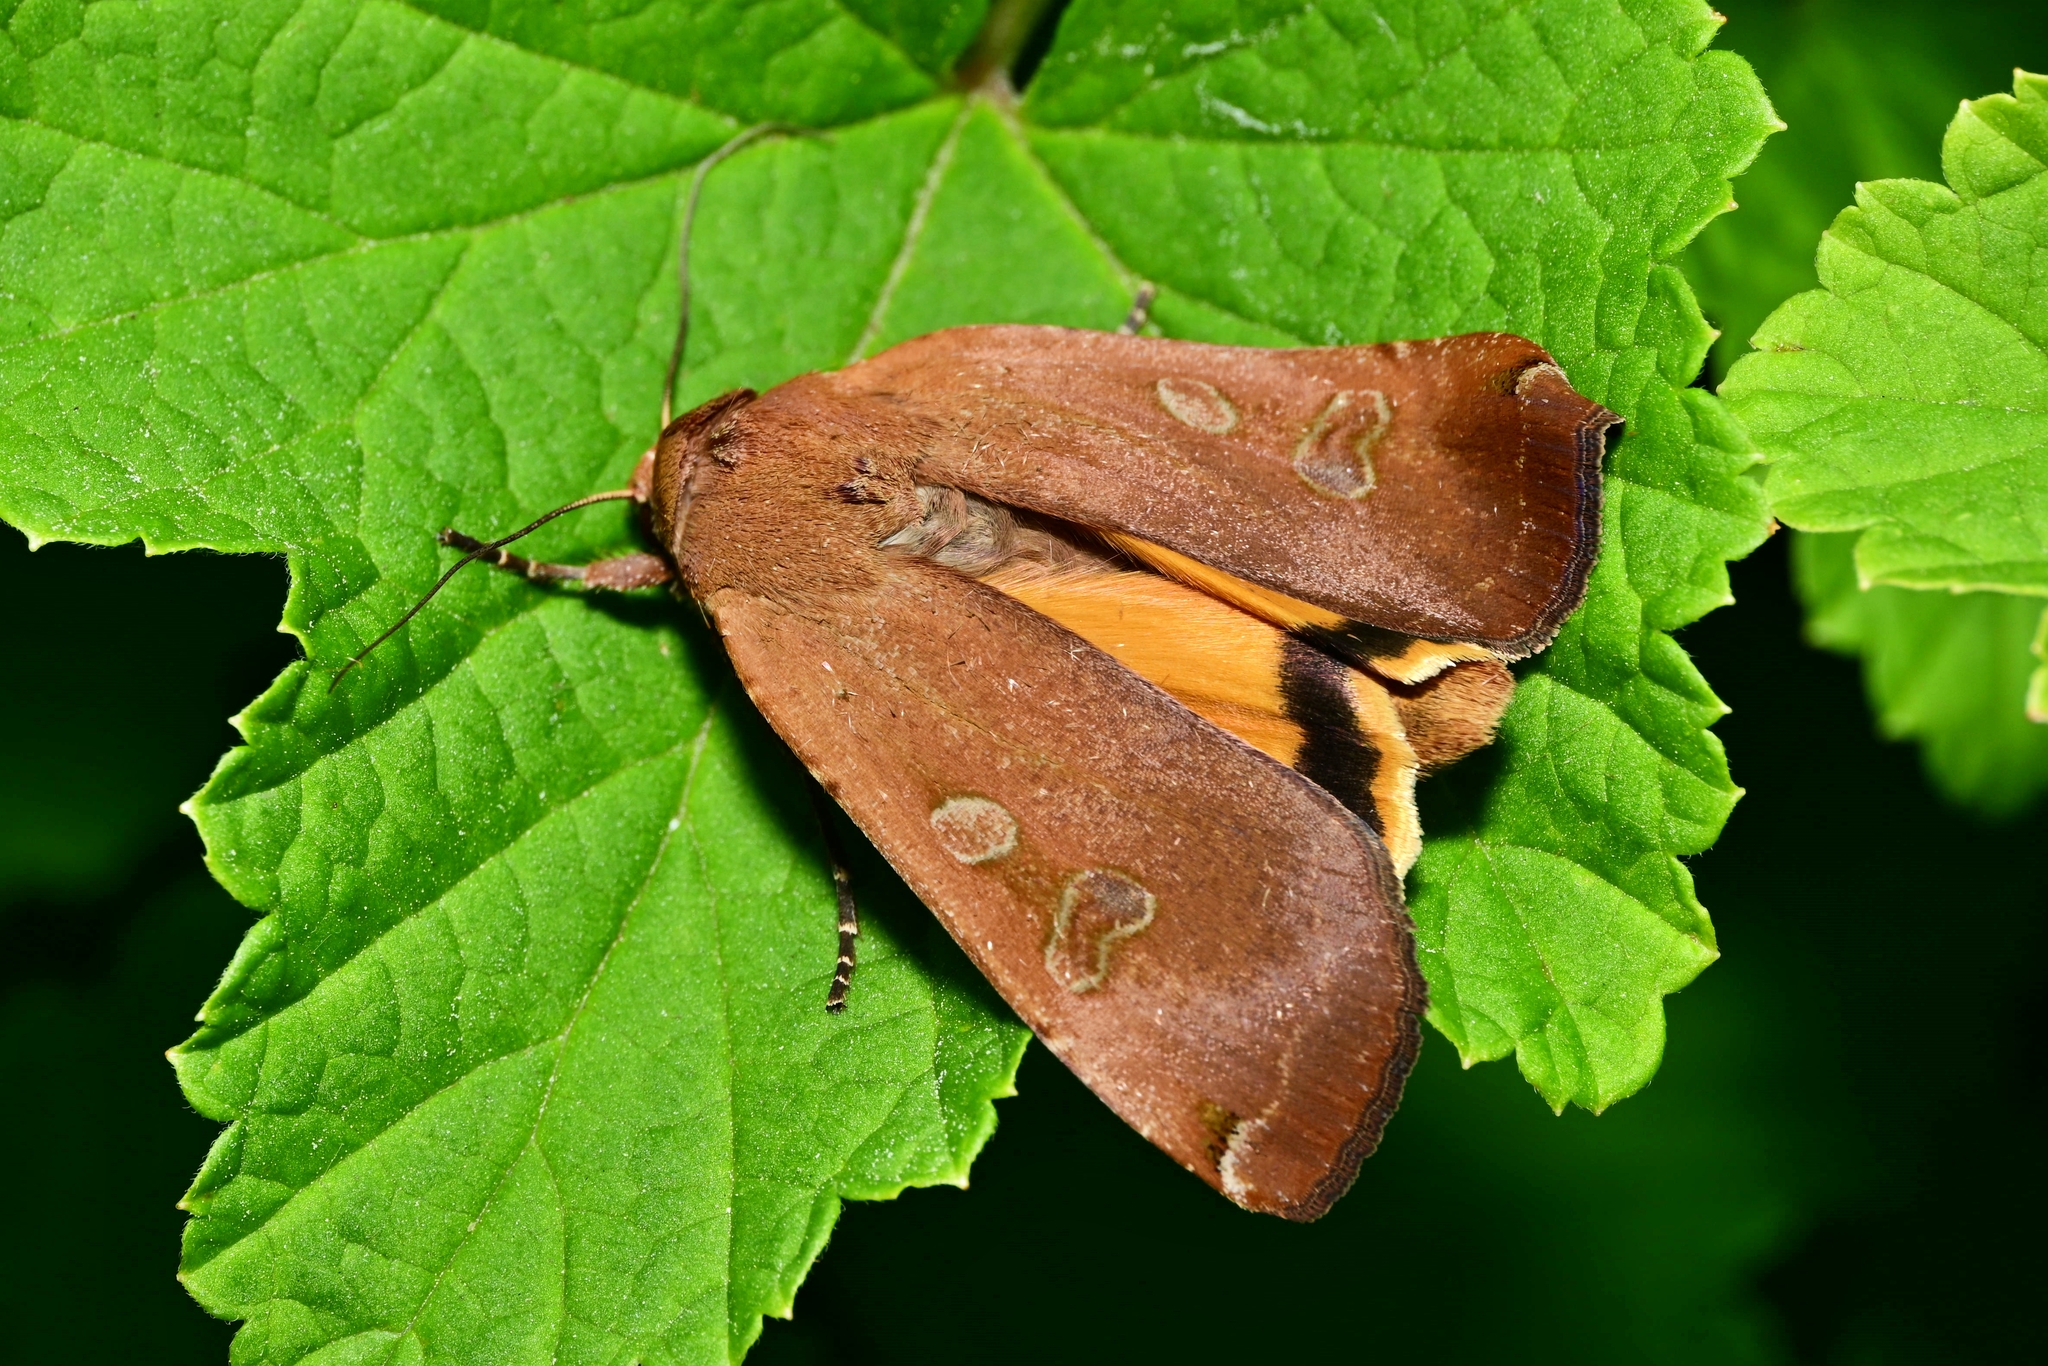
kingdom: Animalia
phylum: Arthropoda
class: Insecta
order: Lepidoptera
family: Noctuidae
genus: Noctua
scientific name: Noctua pronuba
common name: Large yellow underwing
